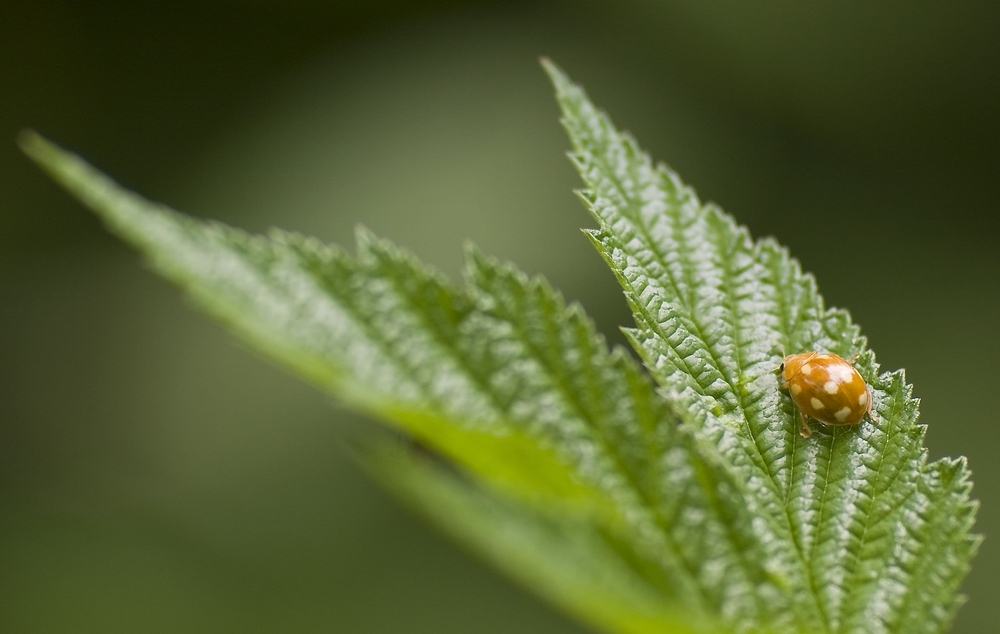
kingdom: Animalia
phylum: Arthropoda
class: Insecta
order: Coleoptera
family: Coccinellidae
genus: Calvia
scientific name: Calvia decemguttata
